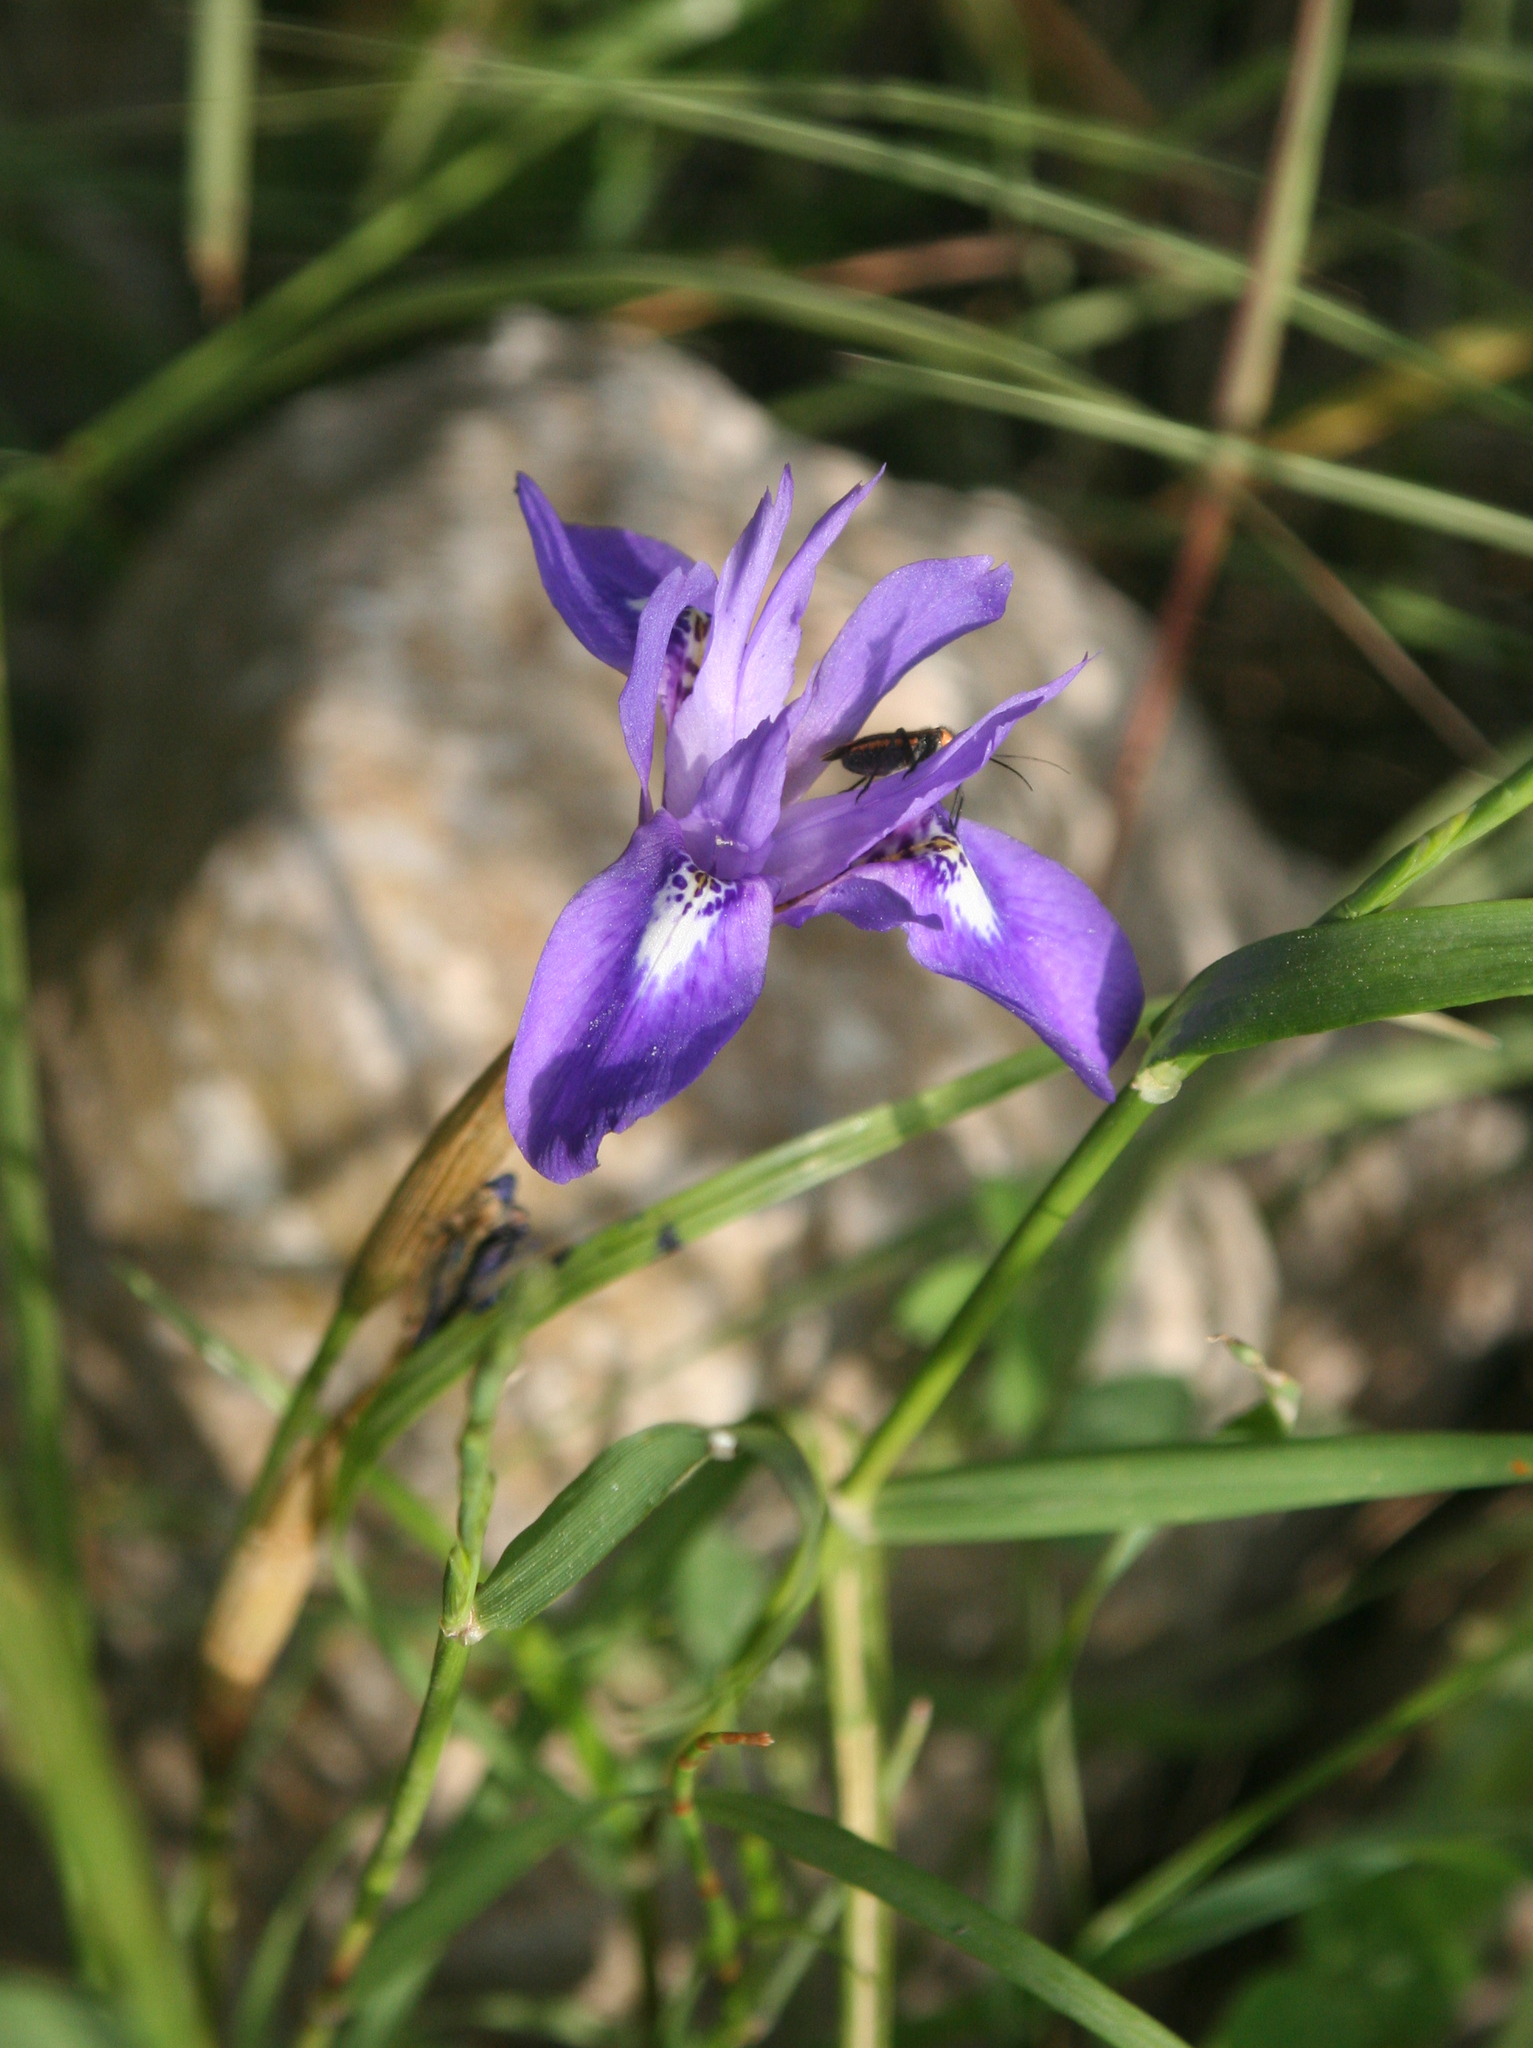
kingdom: Plantae
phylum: Tracheophyta
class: Liliopsida
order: Asparagales
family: Iridaceae
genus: Moraea
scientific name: Moraea sisyrinchium
